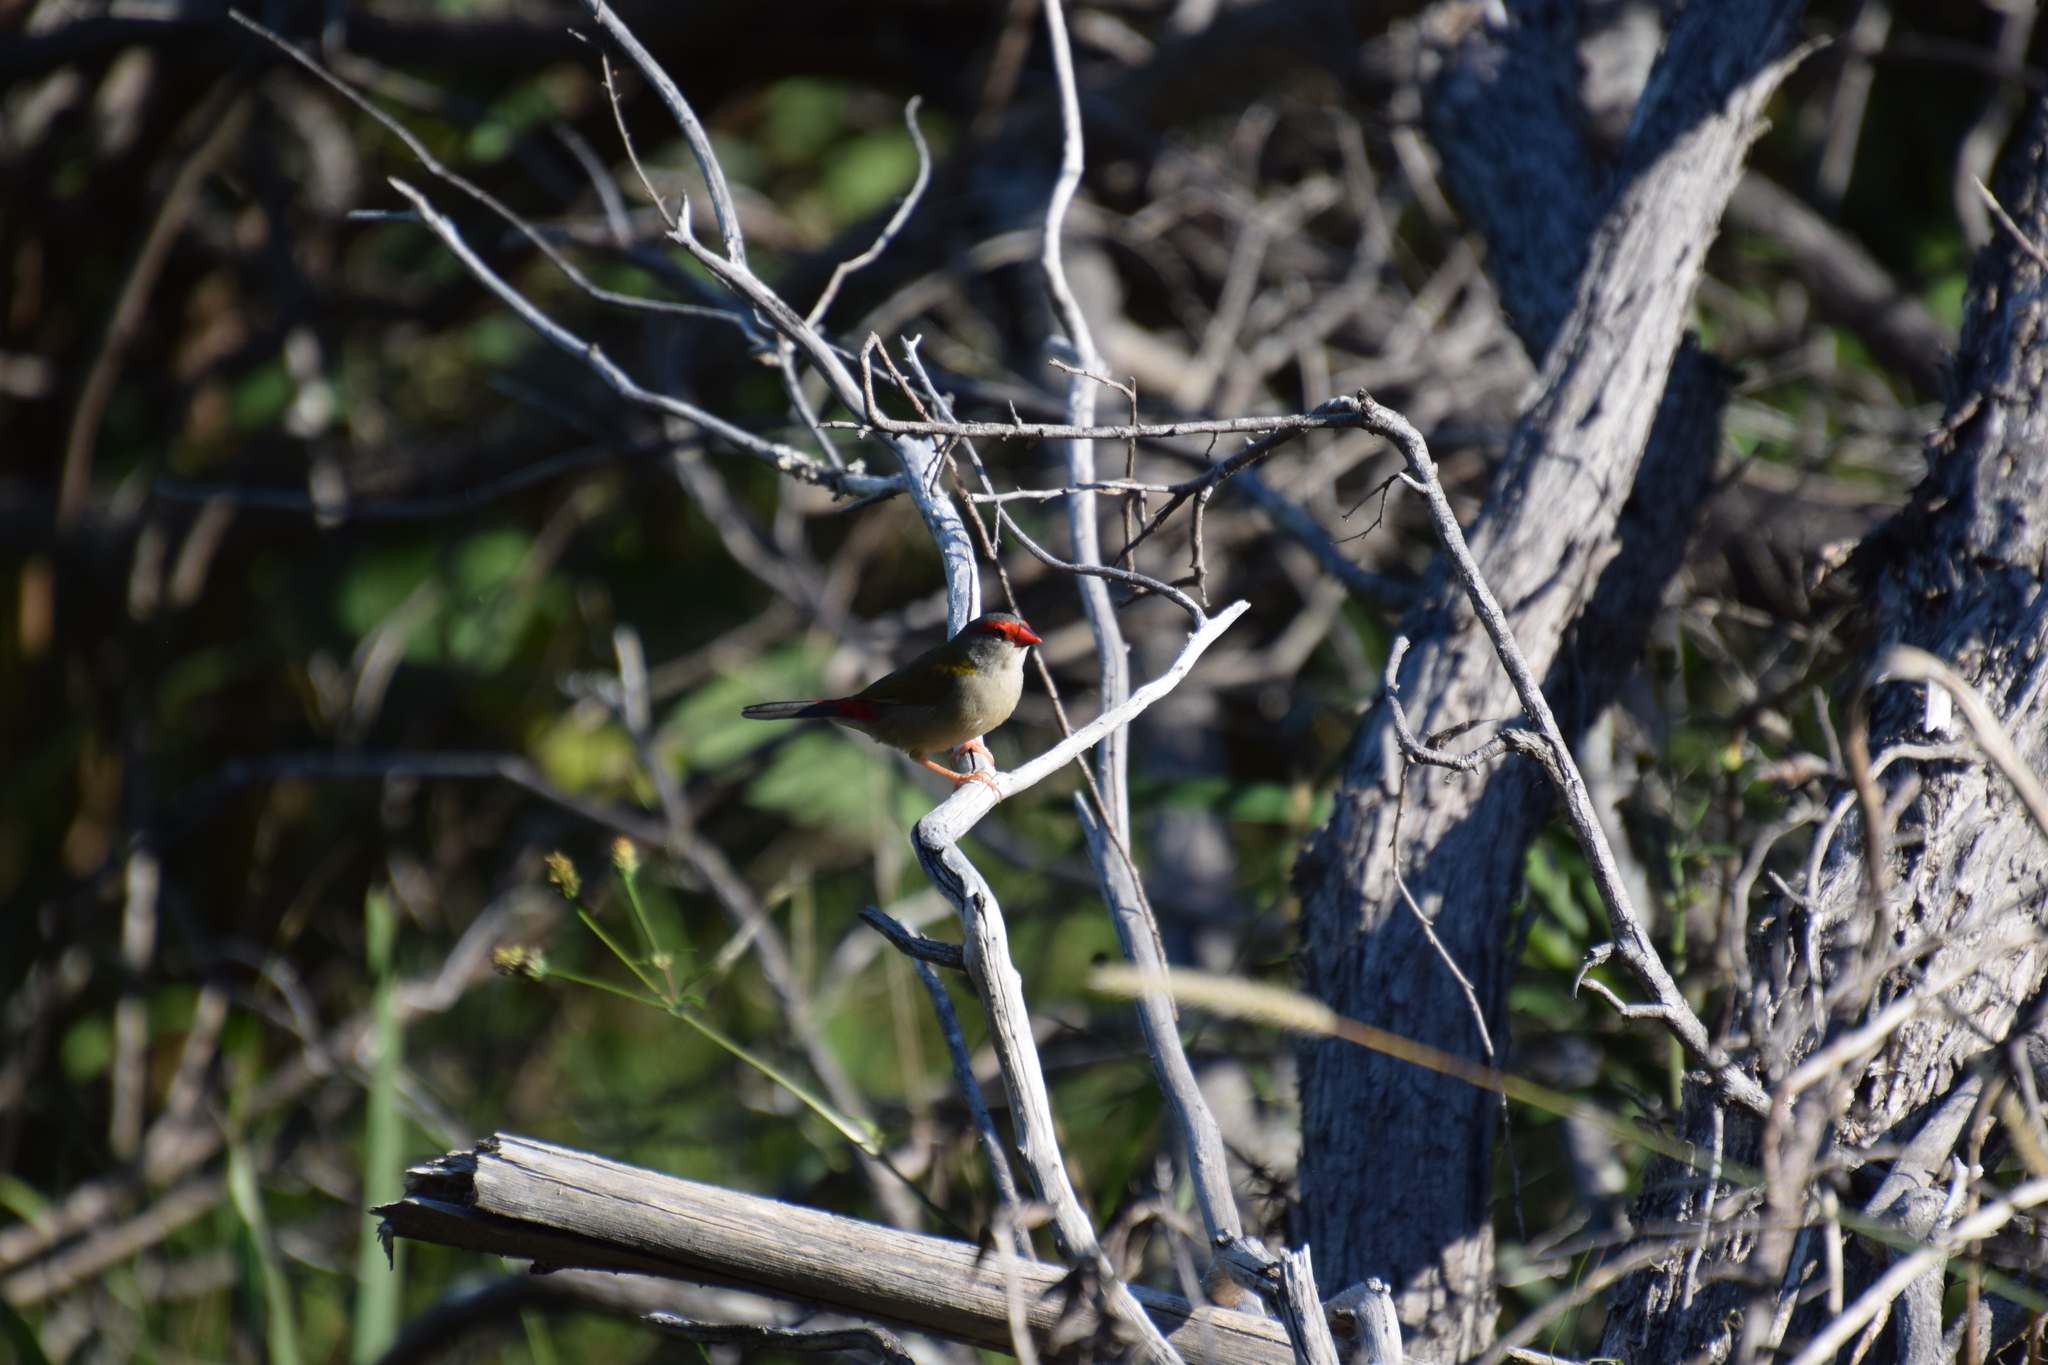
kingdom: Animalia
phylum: Chordata
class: Aves
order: Passeriformes
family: Estrildidae
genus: Neochmia
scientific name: Neochmia temporalis
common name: Red-browed finch
